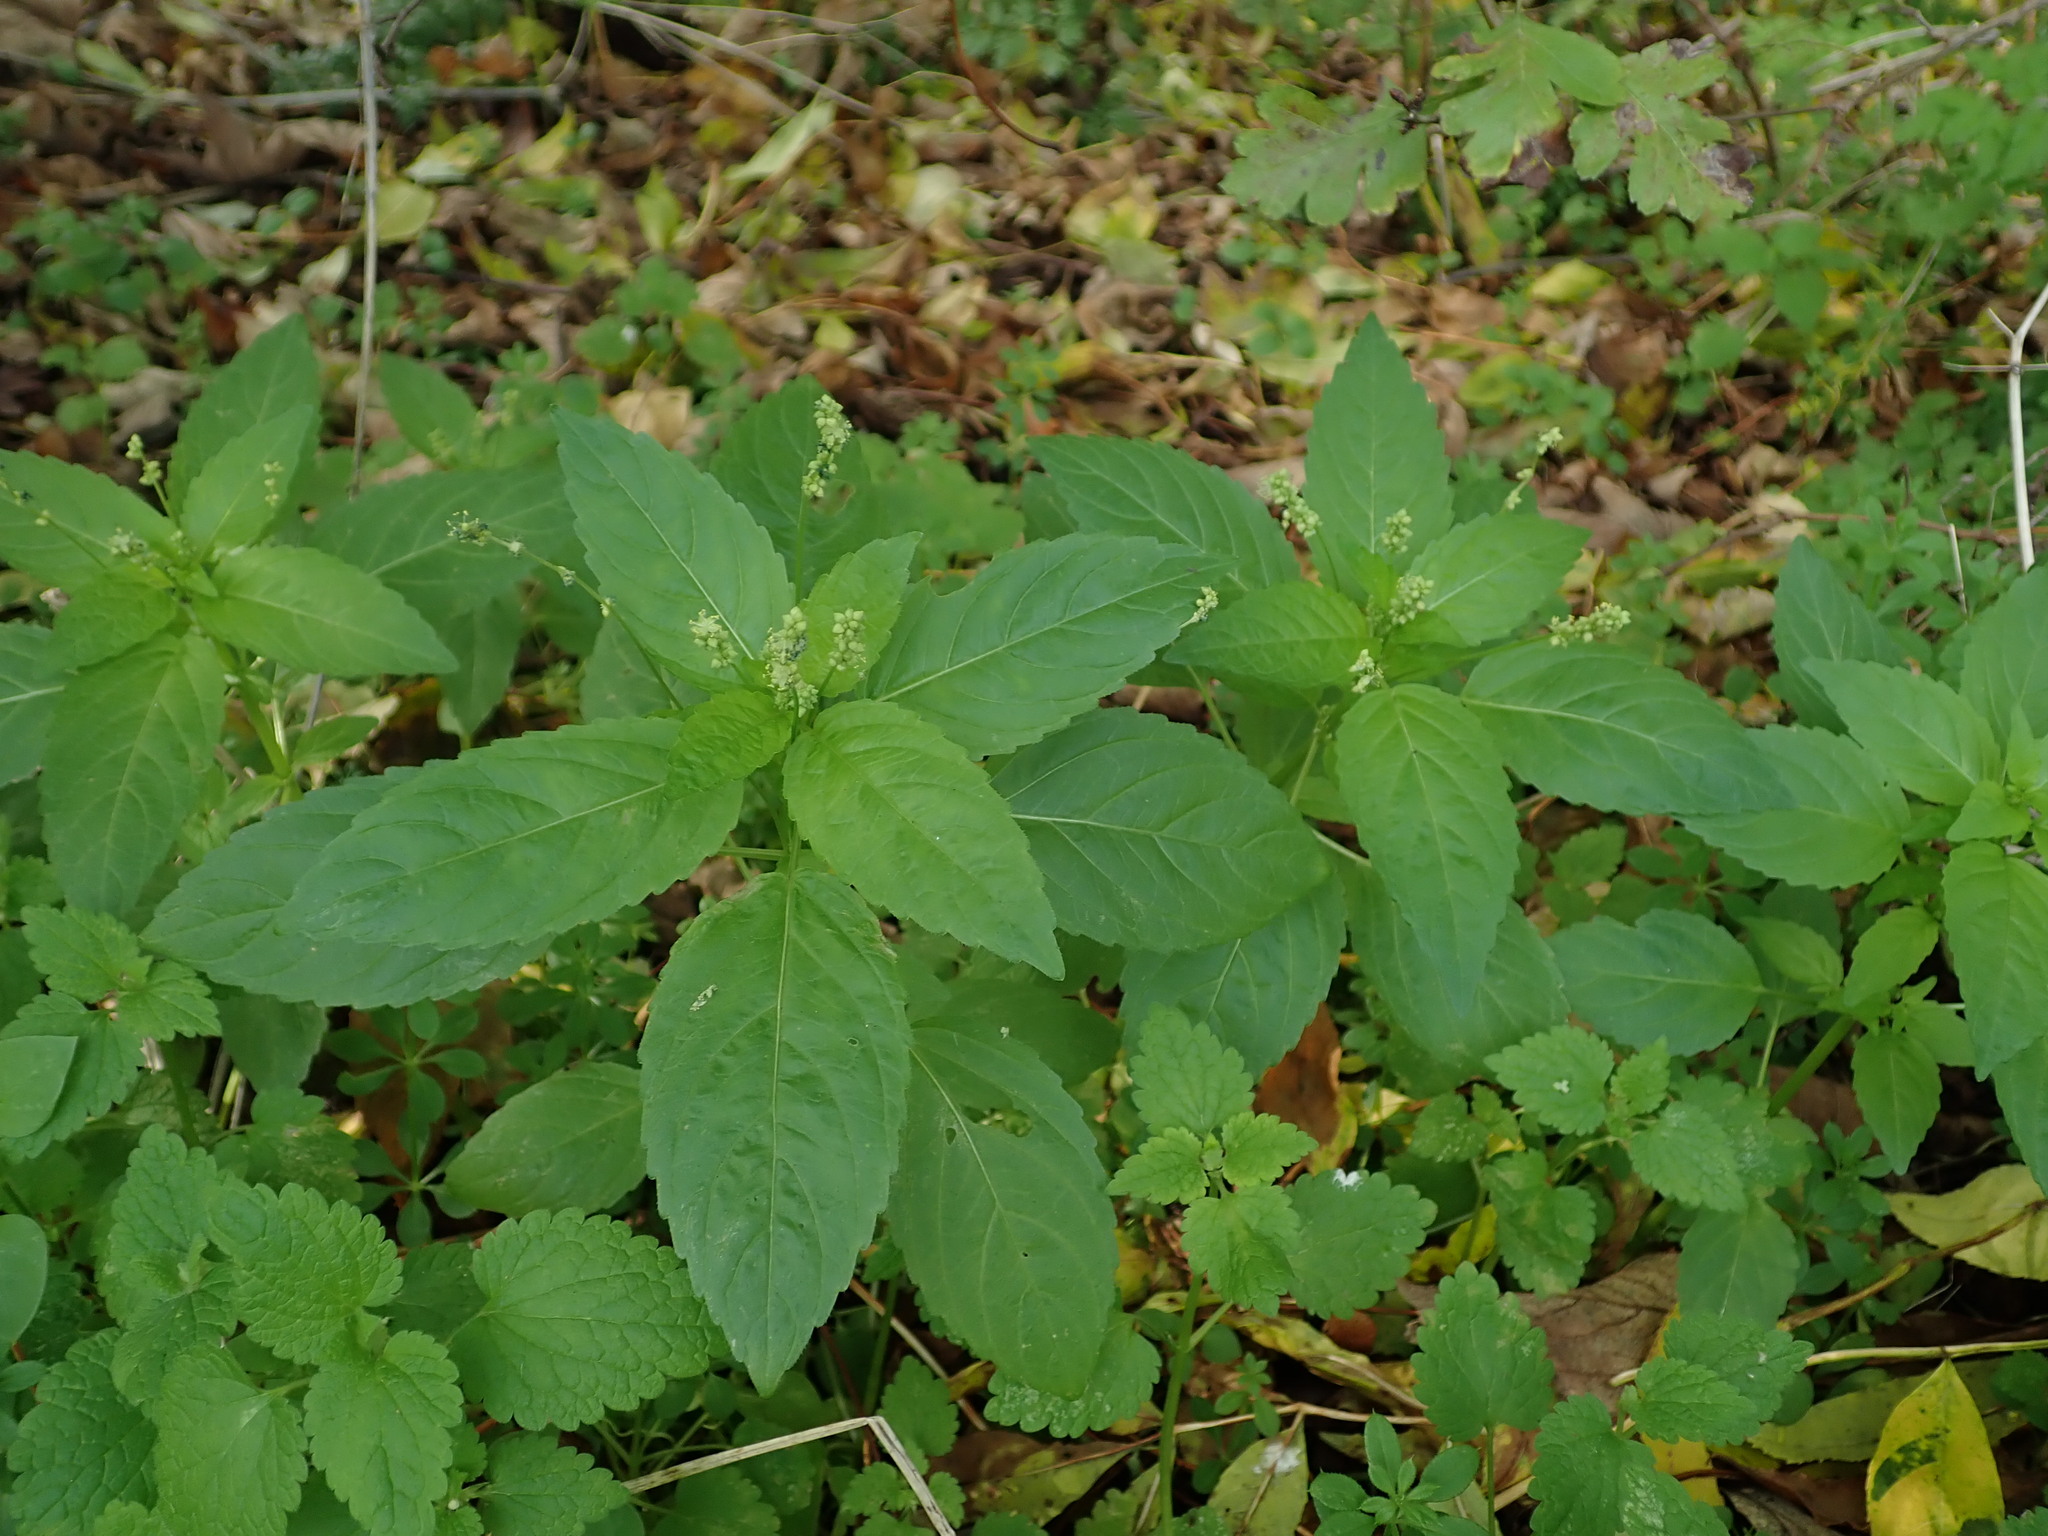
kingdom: Plantae
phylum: Tracheophyta
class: Magnoliopsida
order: Malpighiales
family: Euphorbiaceae
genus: Mercurialis
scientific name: Mercurialis annua
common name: Annual mercury
